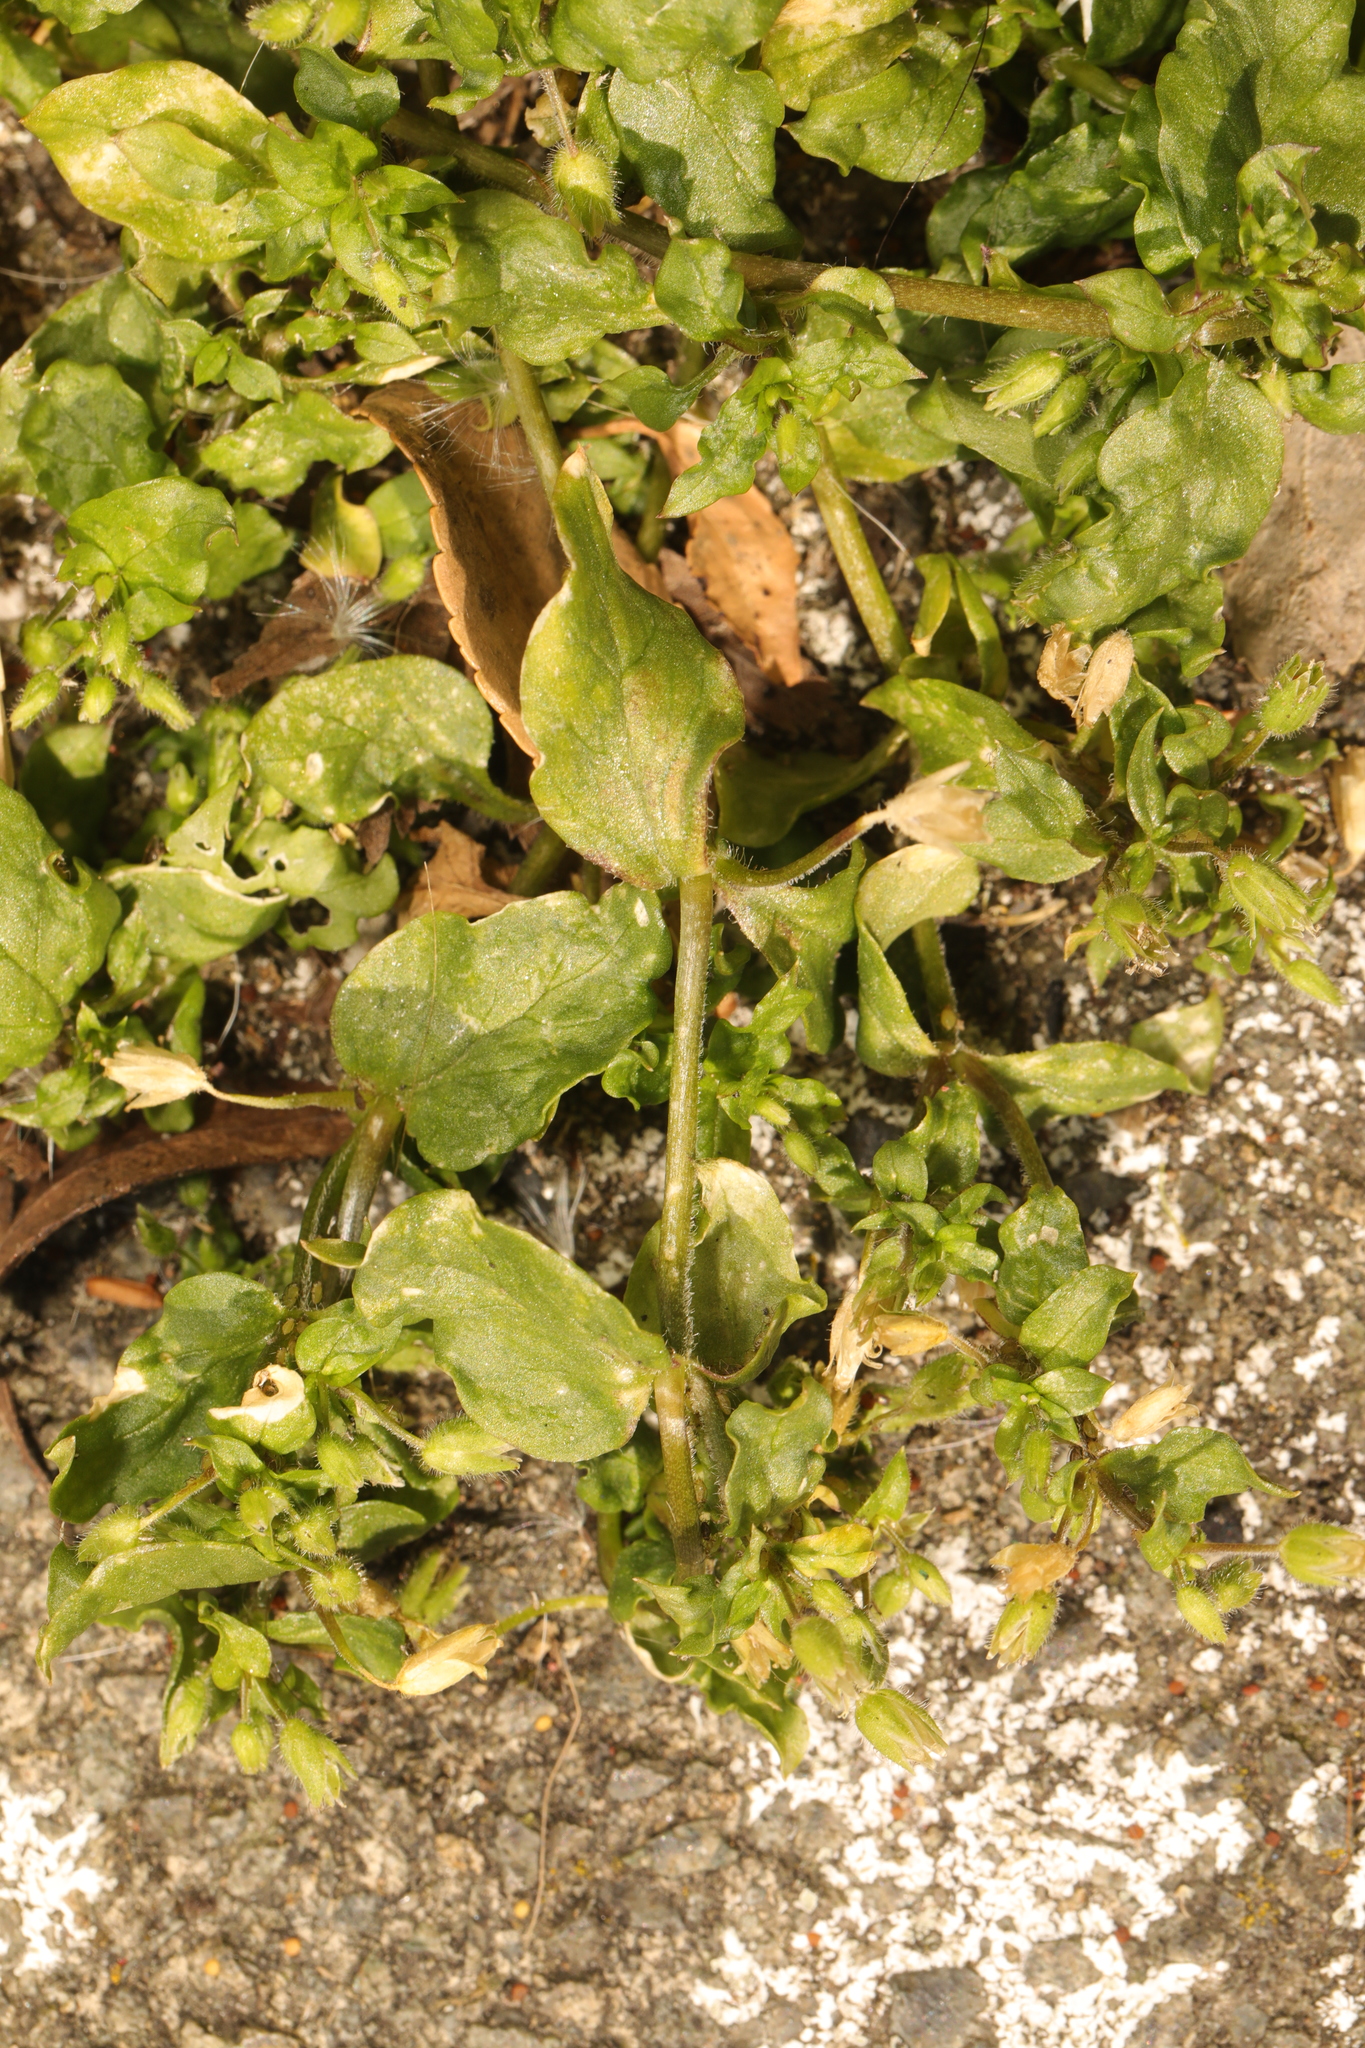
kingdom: Plantae
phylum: Tracheophyta
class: Magnoliopsida
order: Caryophyllales
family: Caryophyllaceae
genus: Stellaria
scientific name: Stellaria media
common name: Common chickweed
